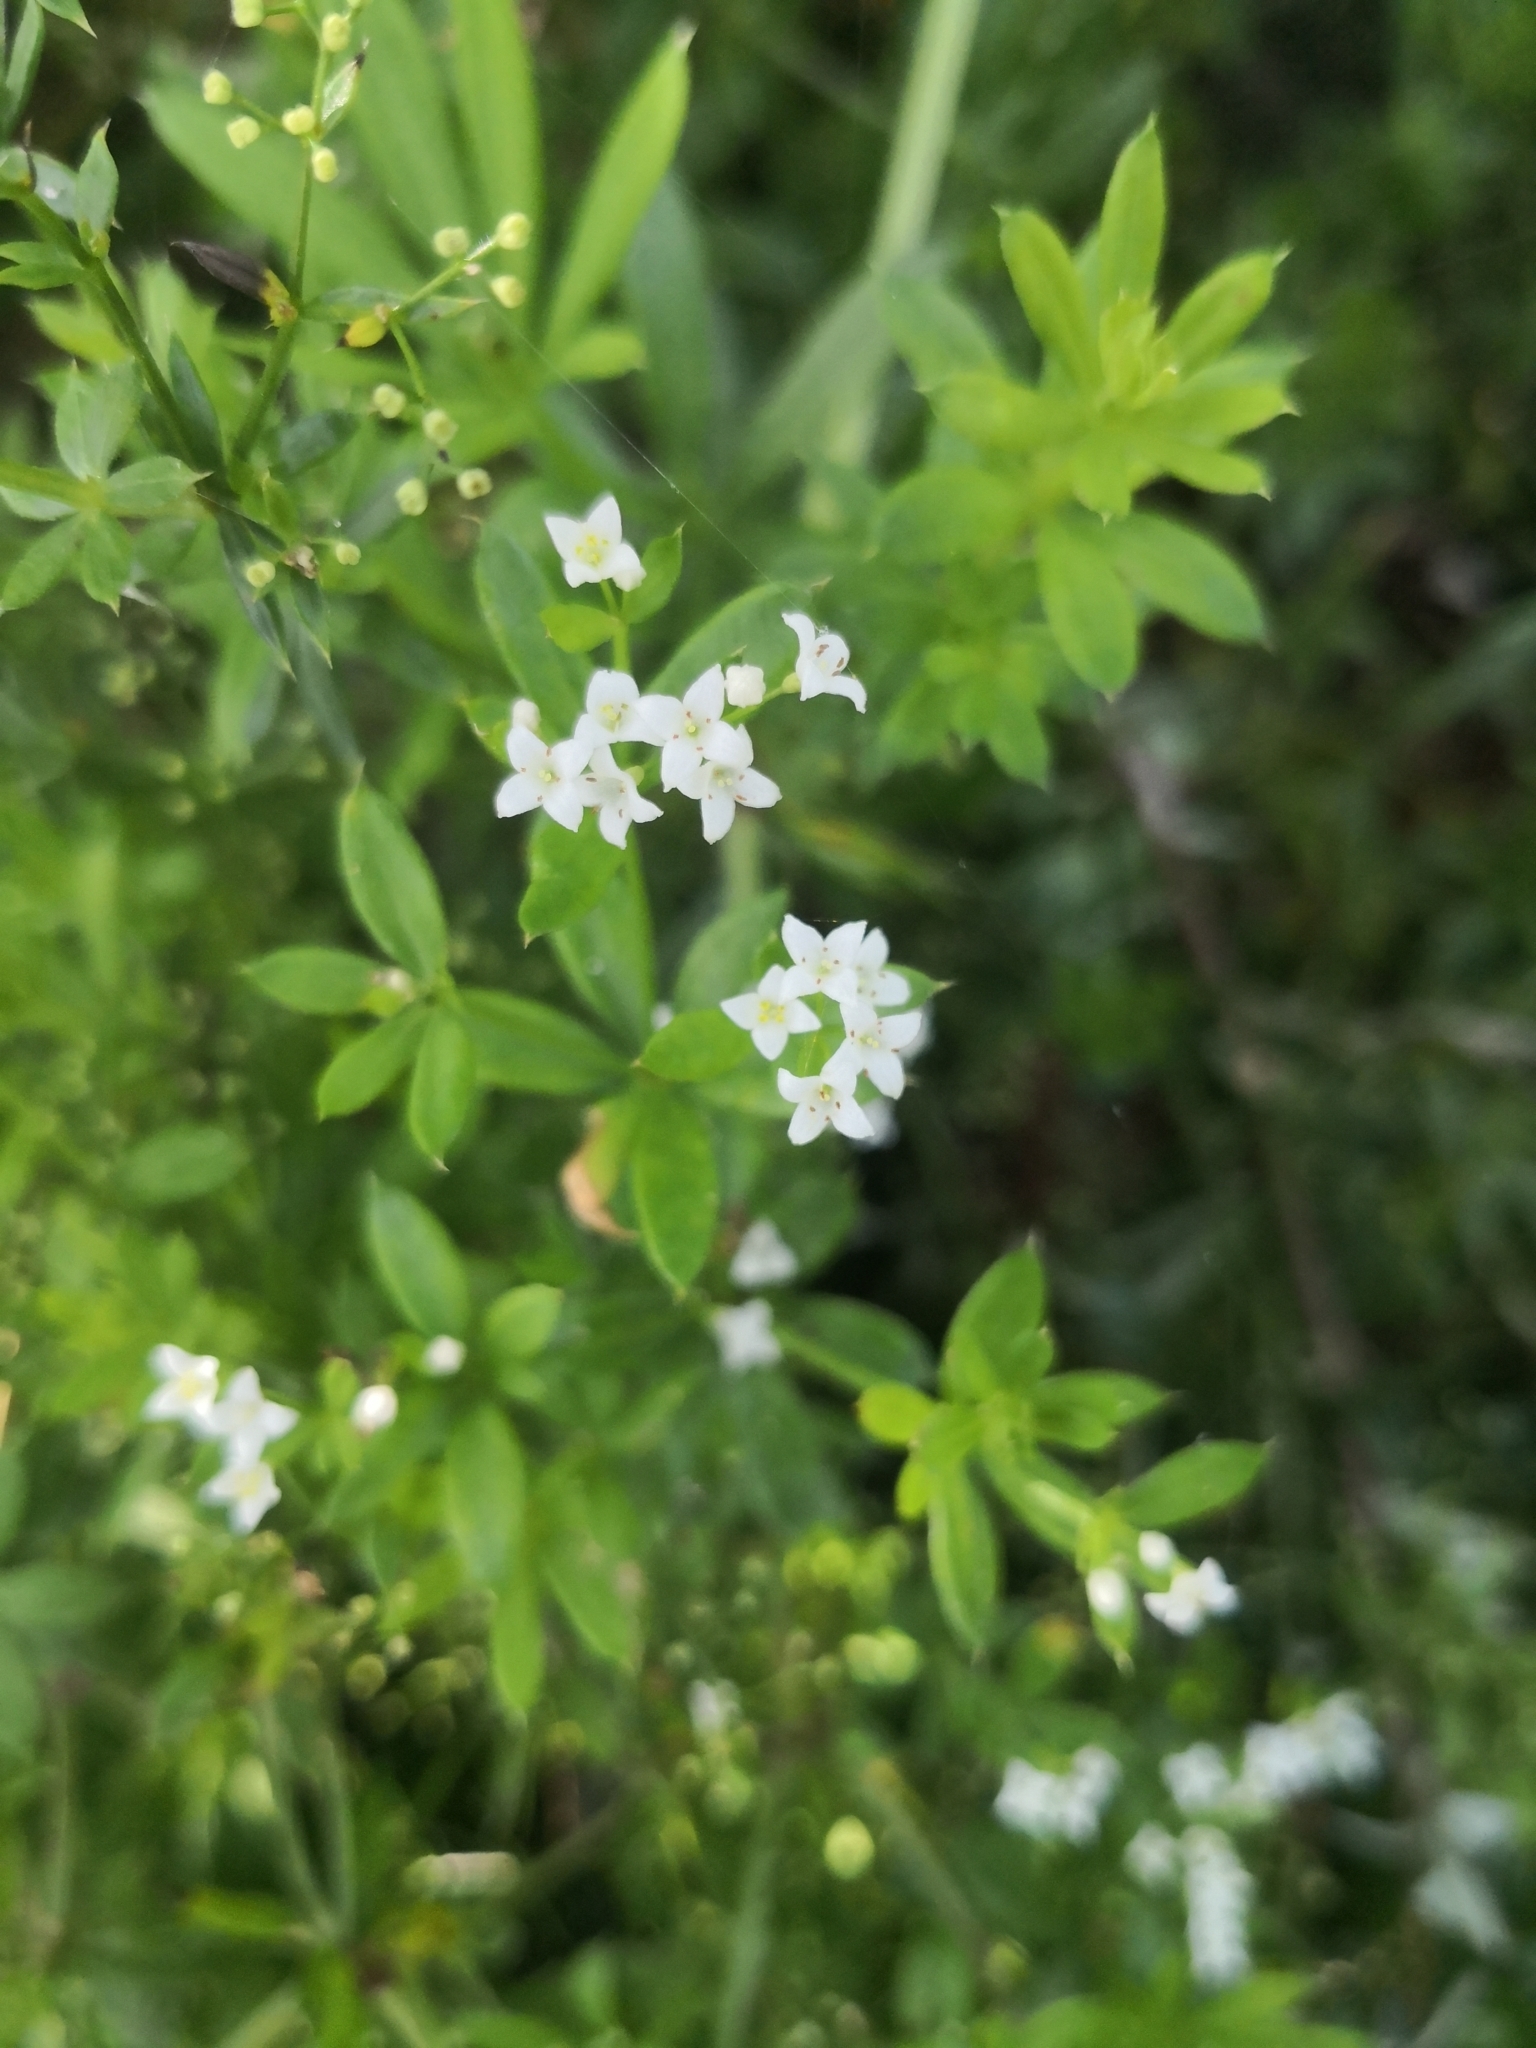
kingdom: Plantae
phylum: Tracheophyta
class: Magnoliopsida
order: Gentianales
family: Rubiaceae
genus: Galium
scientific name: Galium rivale
